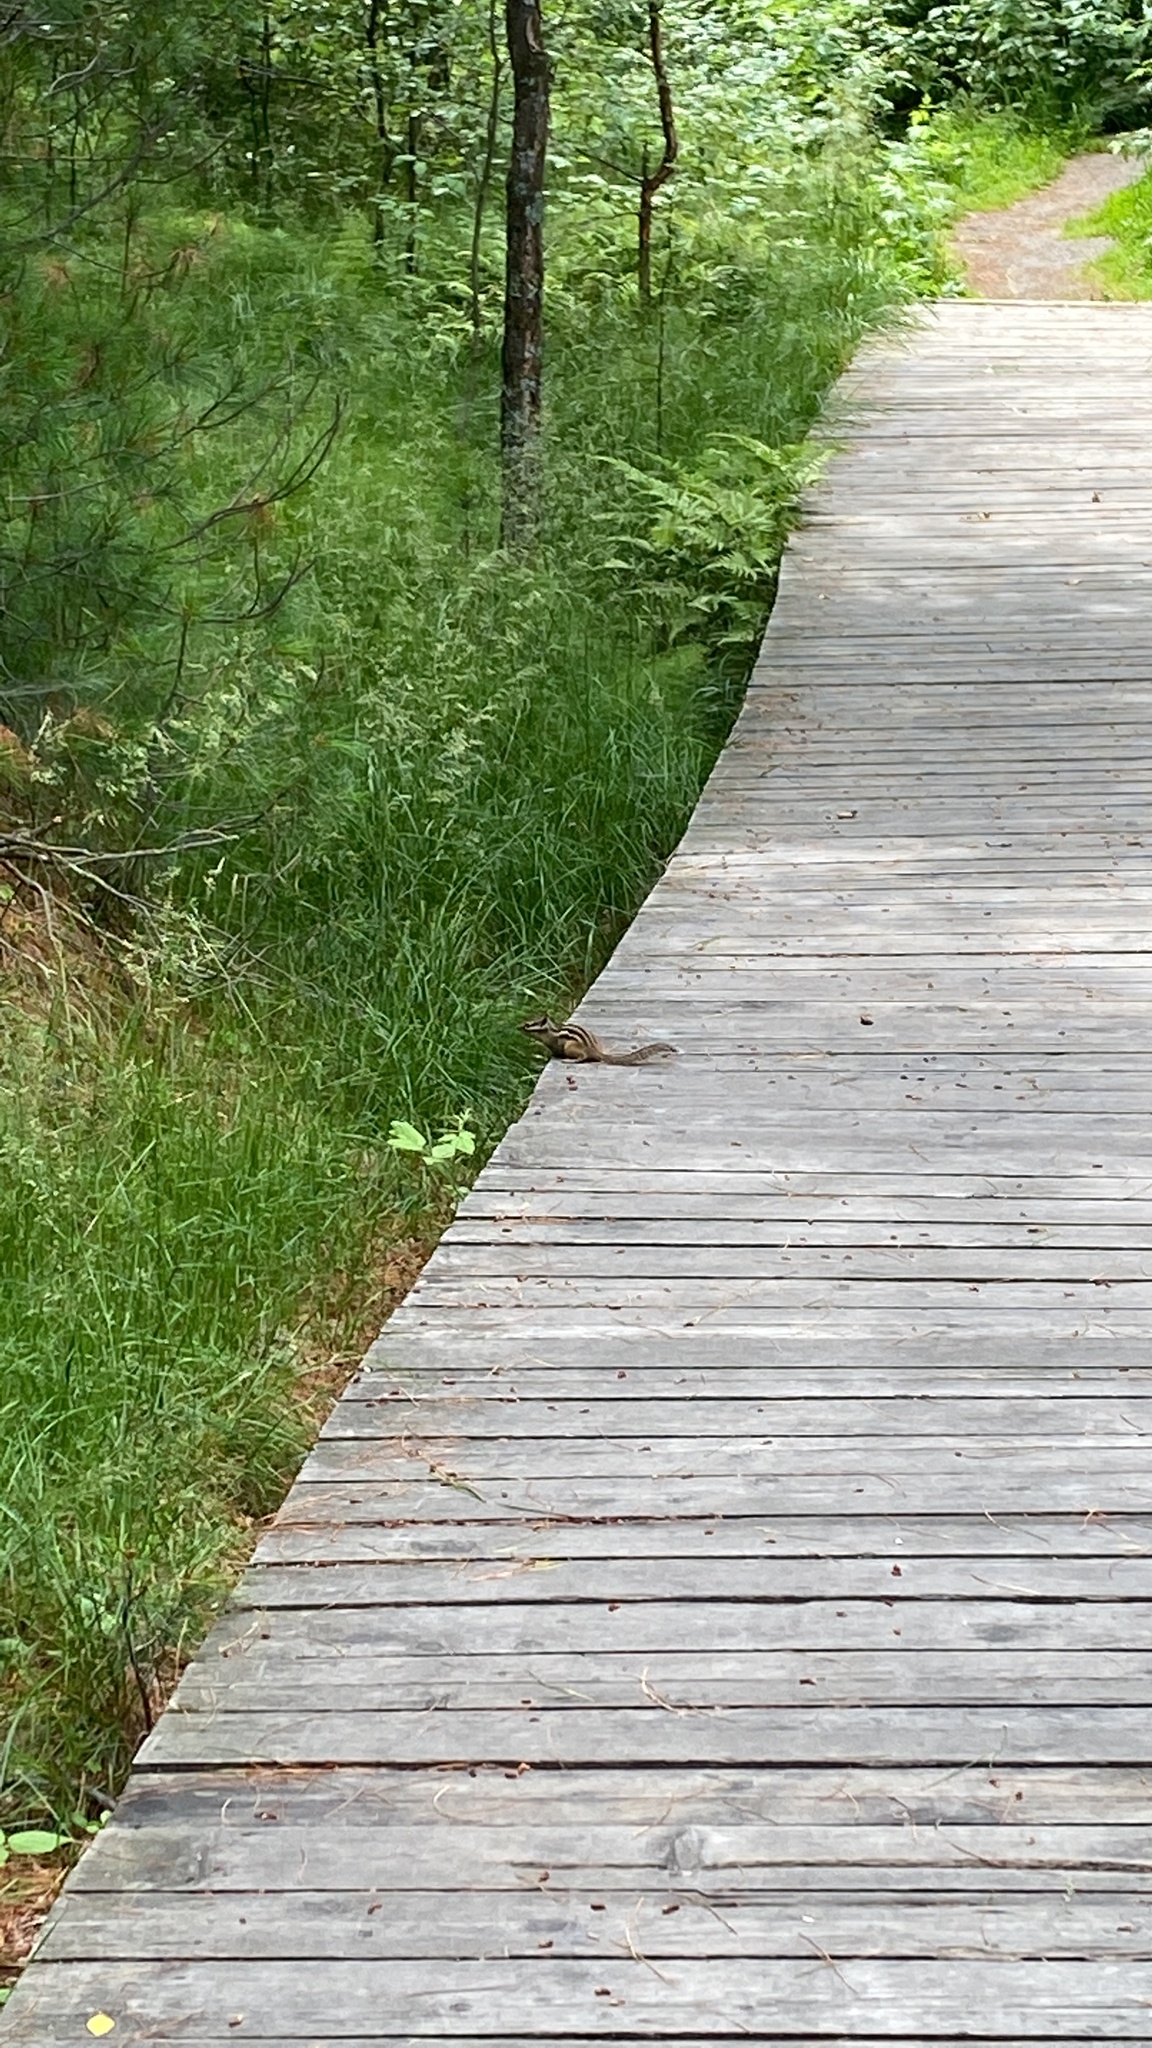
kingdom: Animalia
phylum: Chordata
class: Mammalia
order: Rodentia
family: Sciuridae
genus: Tamias
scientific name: Tamias sibiricus
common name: Siberian chipmunk
